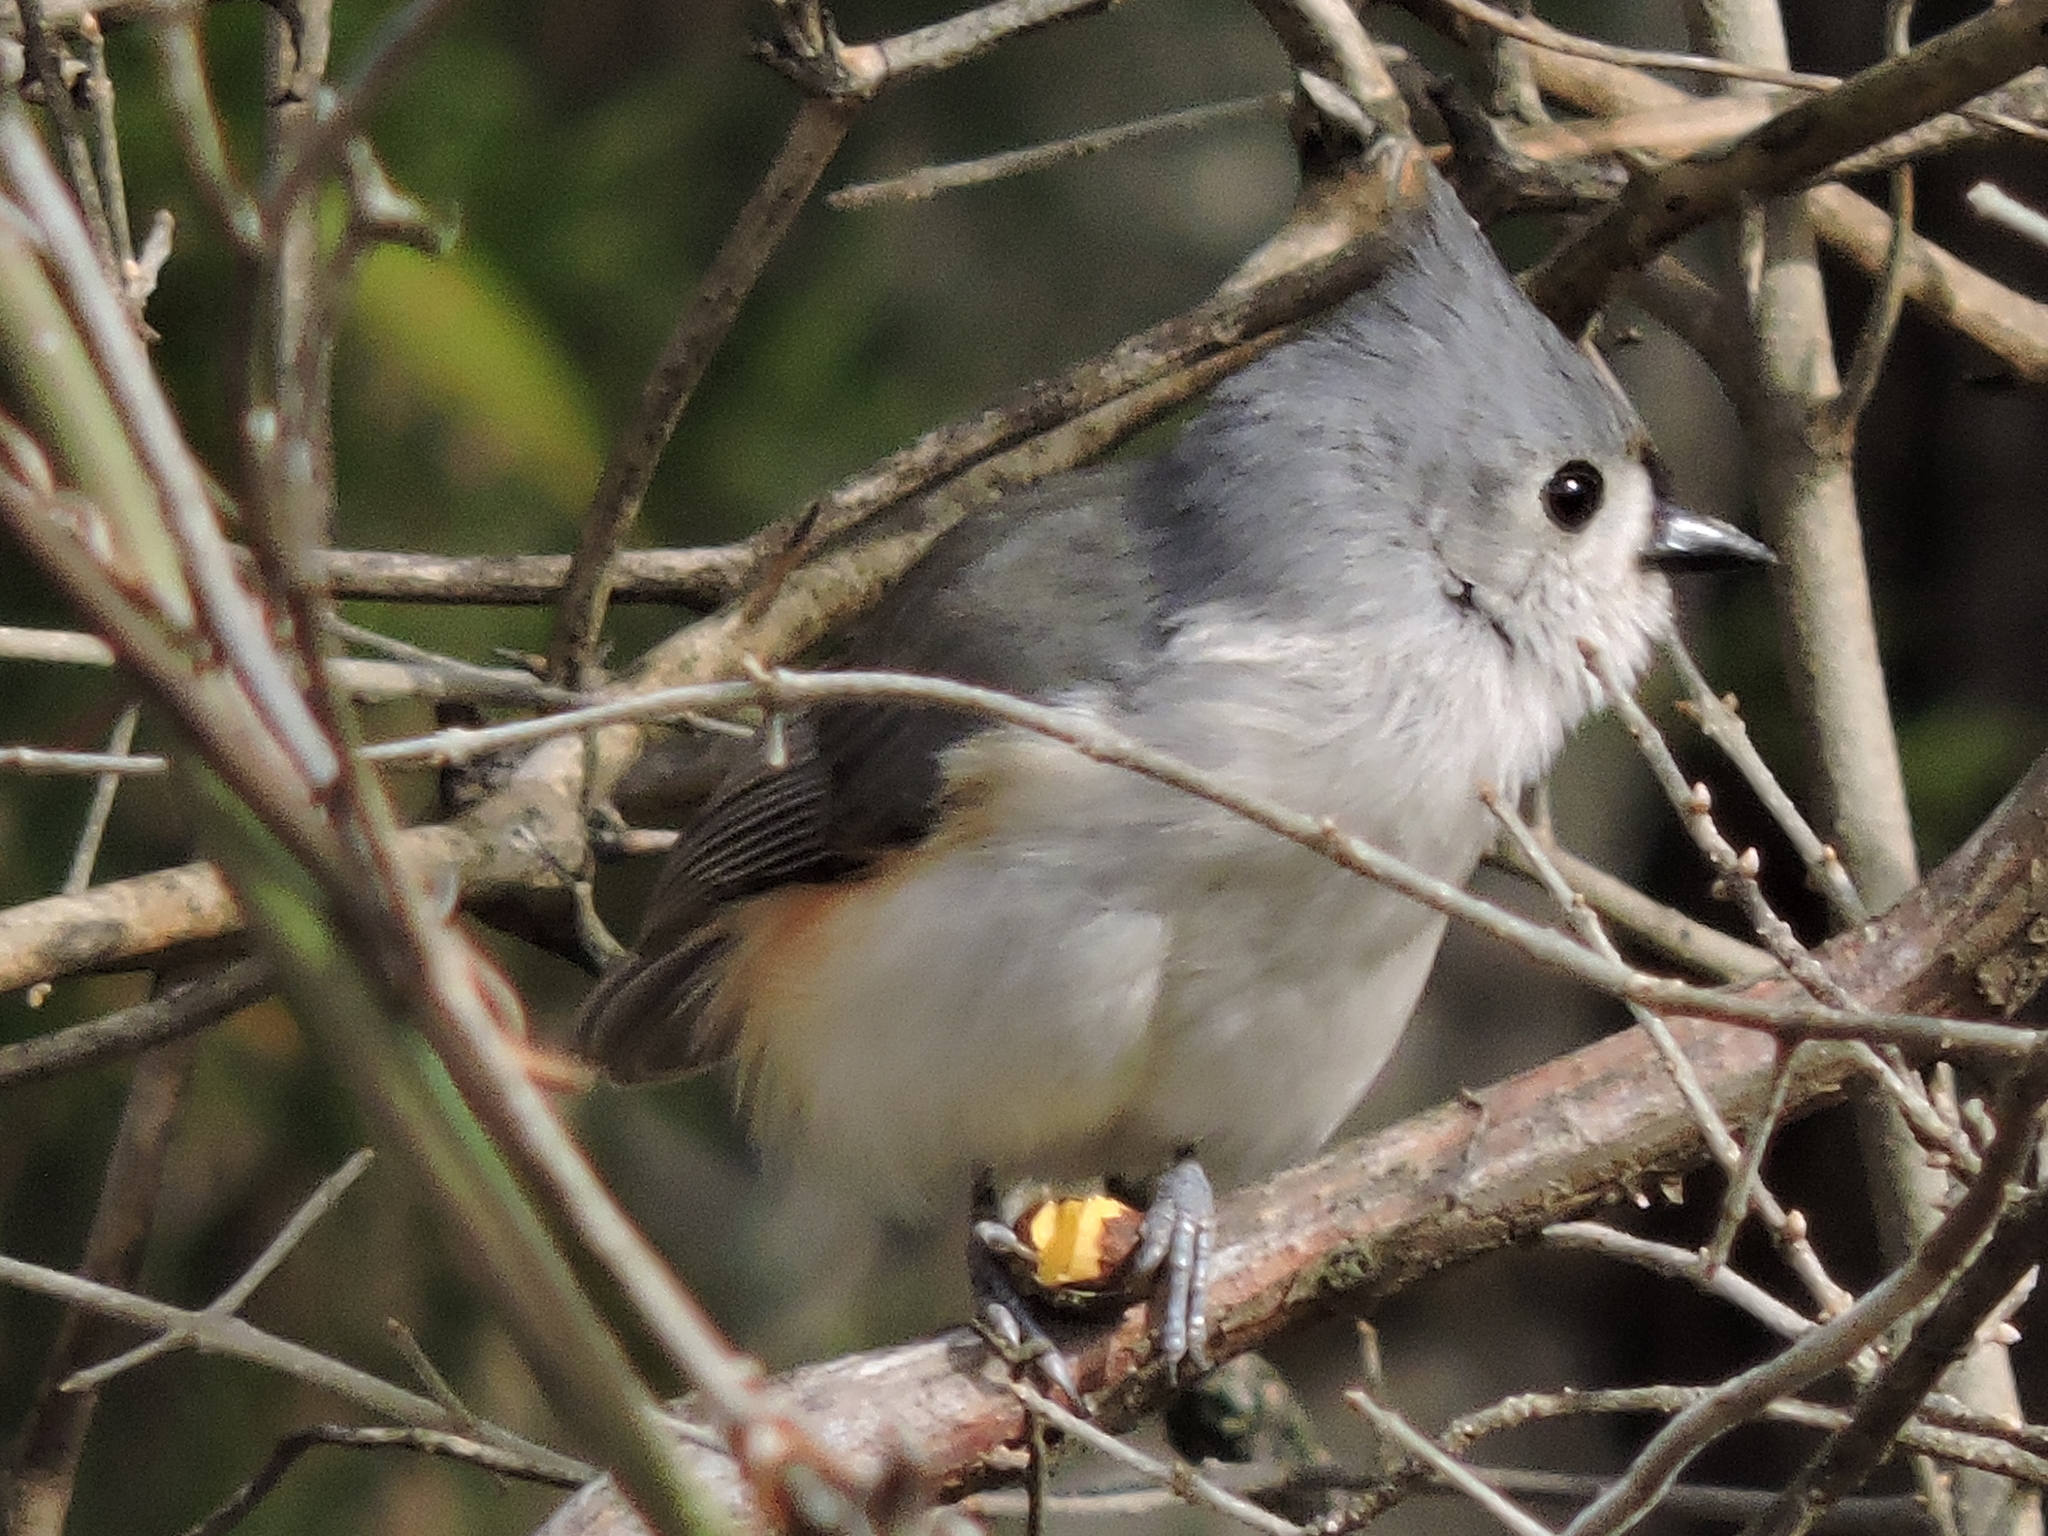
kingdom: Animalia
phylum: Chordata
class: Aves
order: Passeriformes
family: Paridae
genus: Baeolophus
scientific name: Baeolophus bicolor
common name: Tufted titmouse
